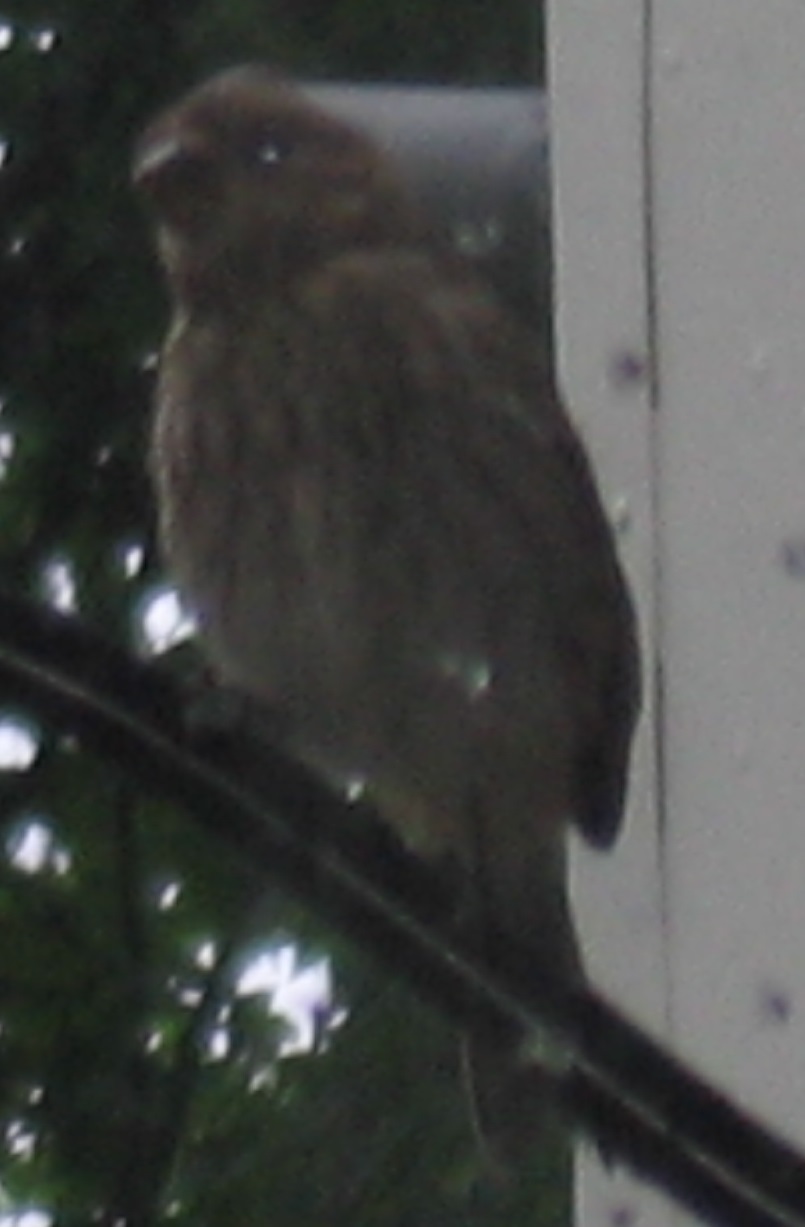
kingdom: Animalia
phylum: Chordata
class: Aves
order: Passeriformes
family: Fringillidae
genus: Haemorhous
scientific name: Haemorhous mexicanus
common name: House finch
